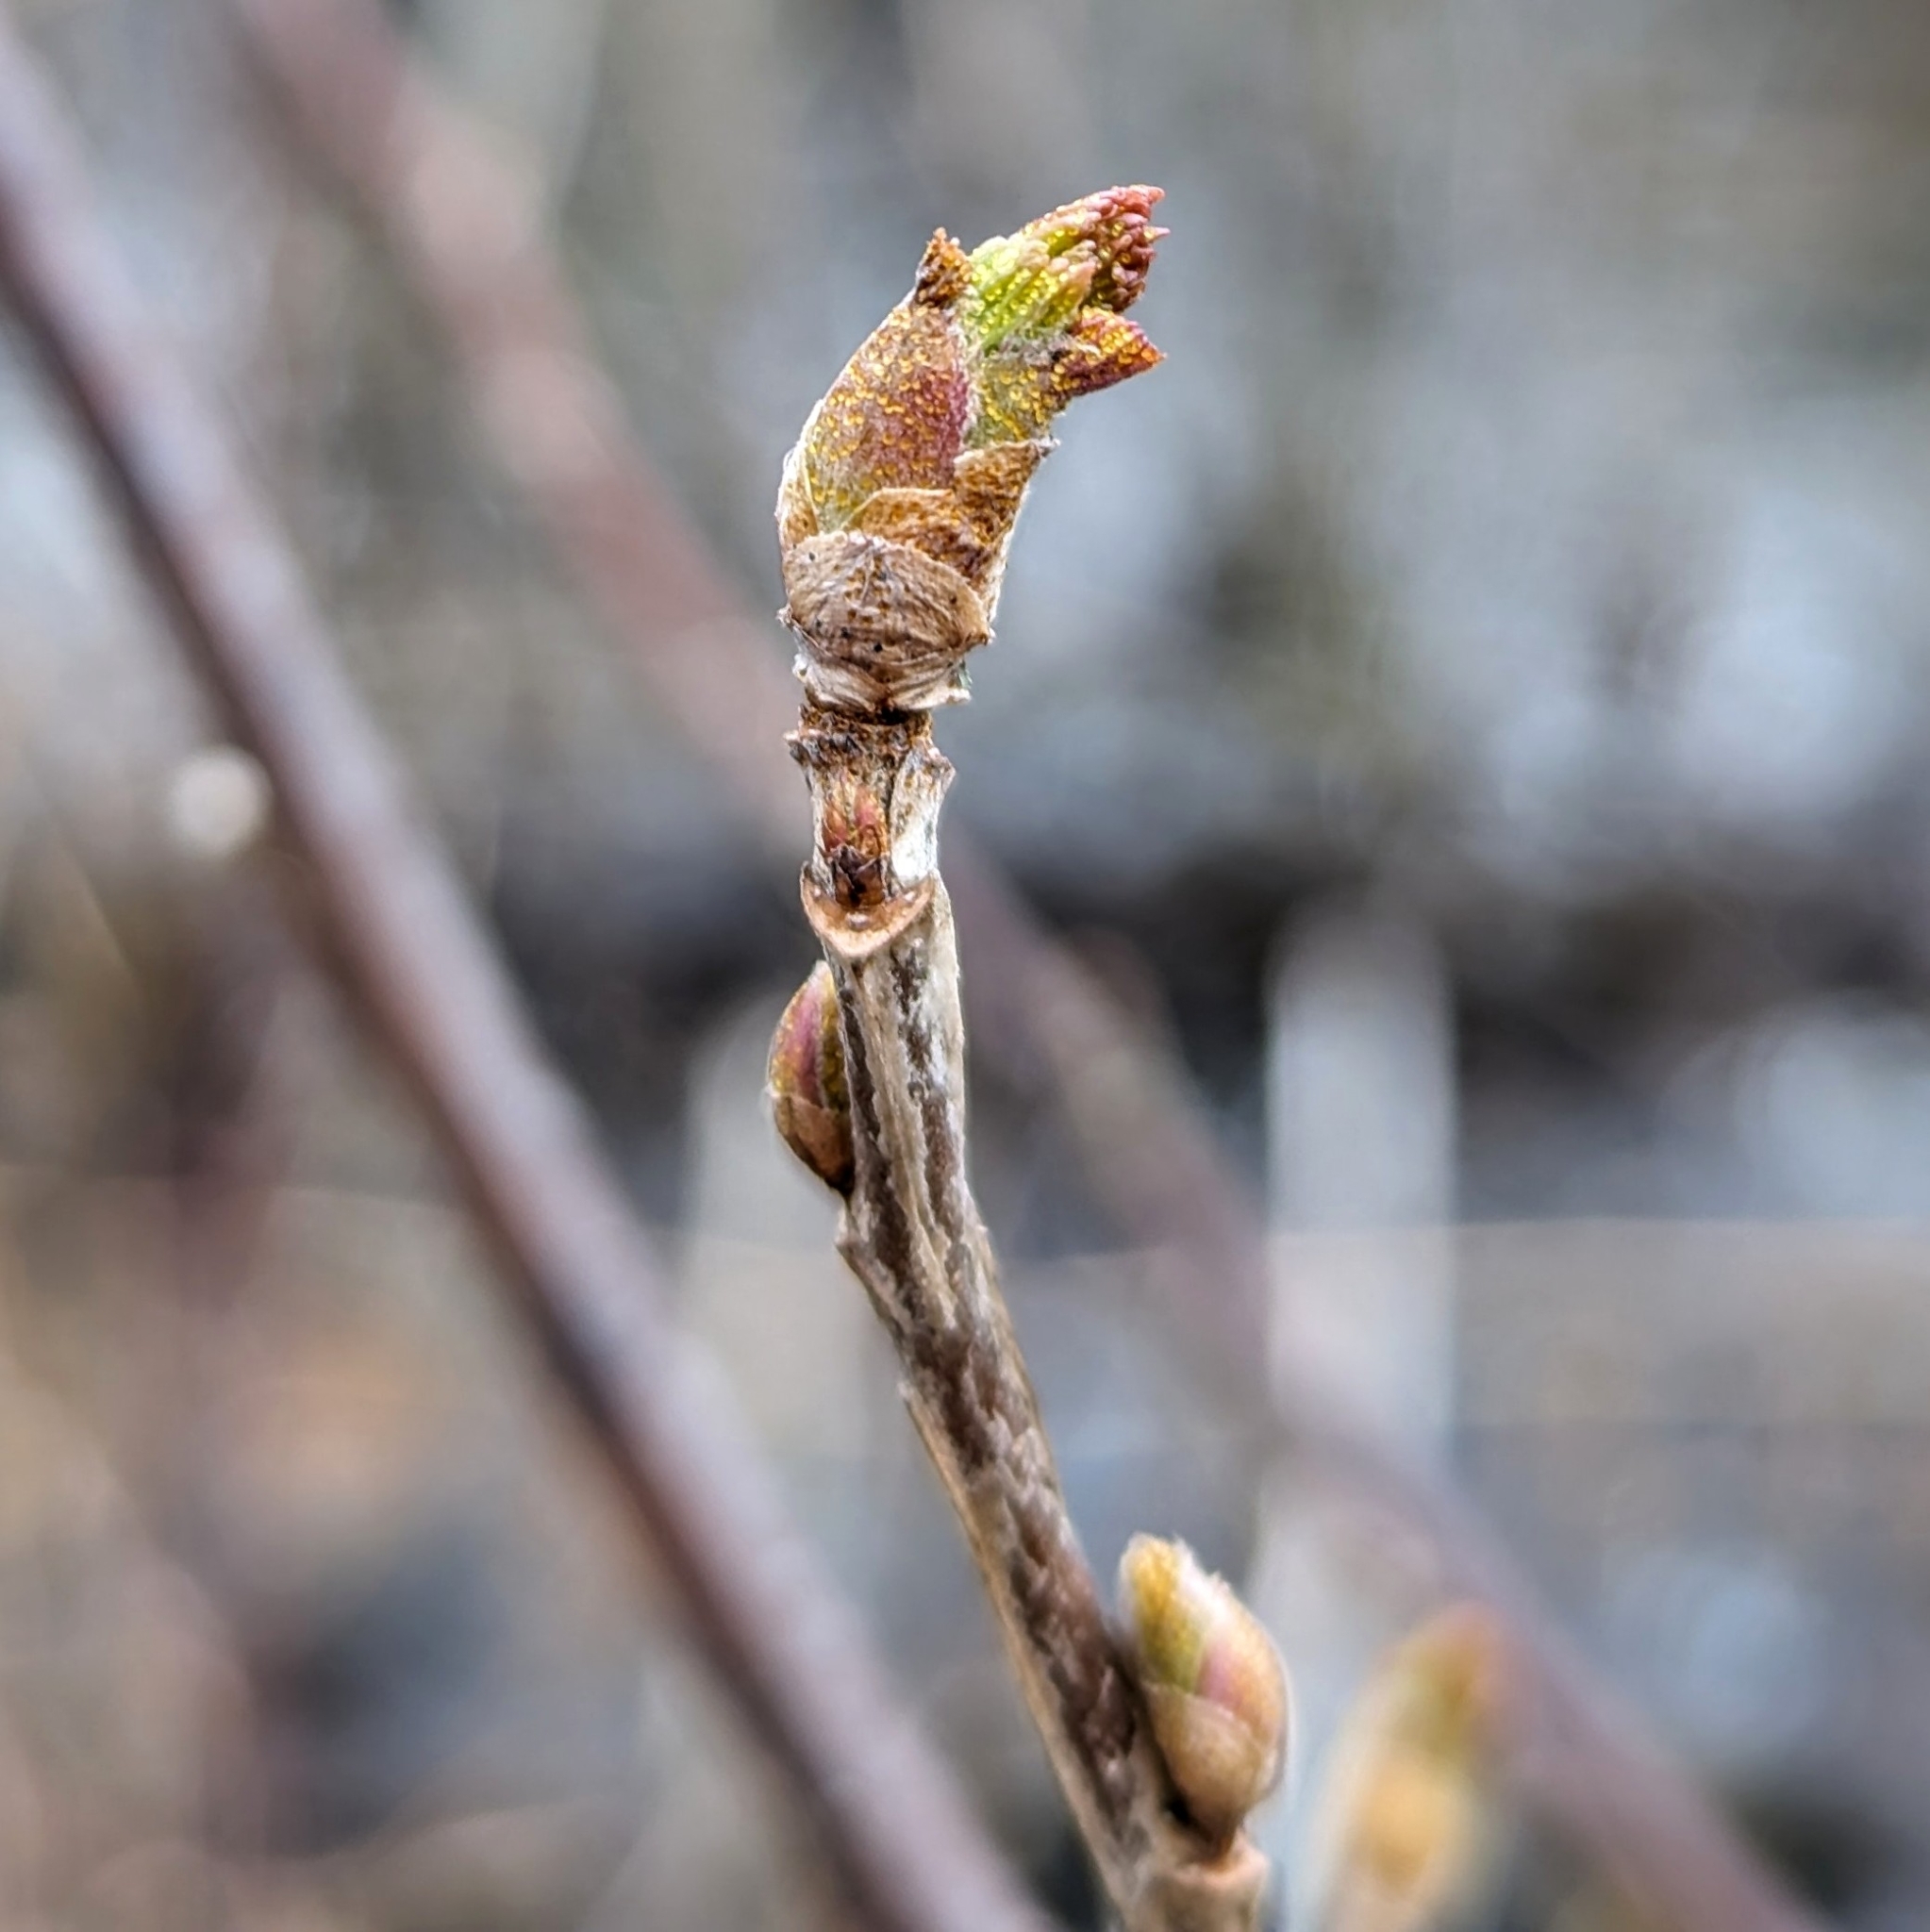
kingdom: Plantae
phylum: Tracheophyta
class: Magnoliopsida
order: Fagales
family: Betulaceae
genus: Alnus
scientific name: Alnus incana
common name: Grey alder
